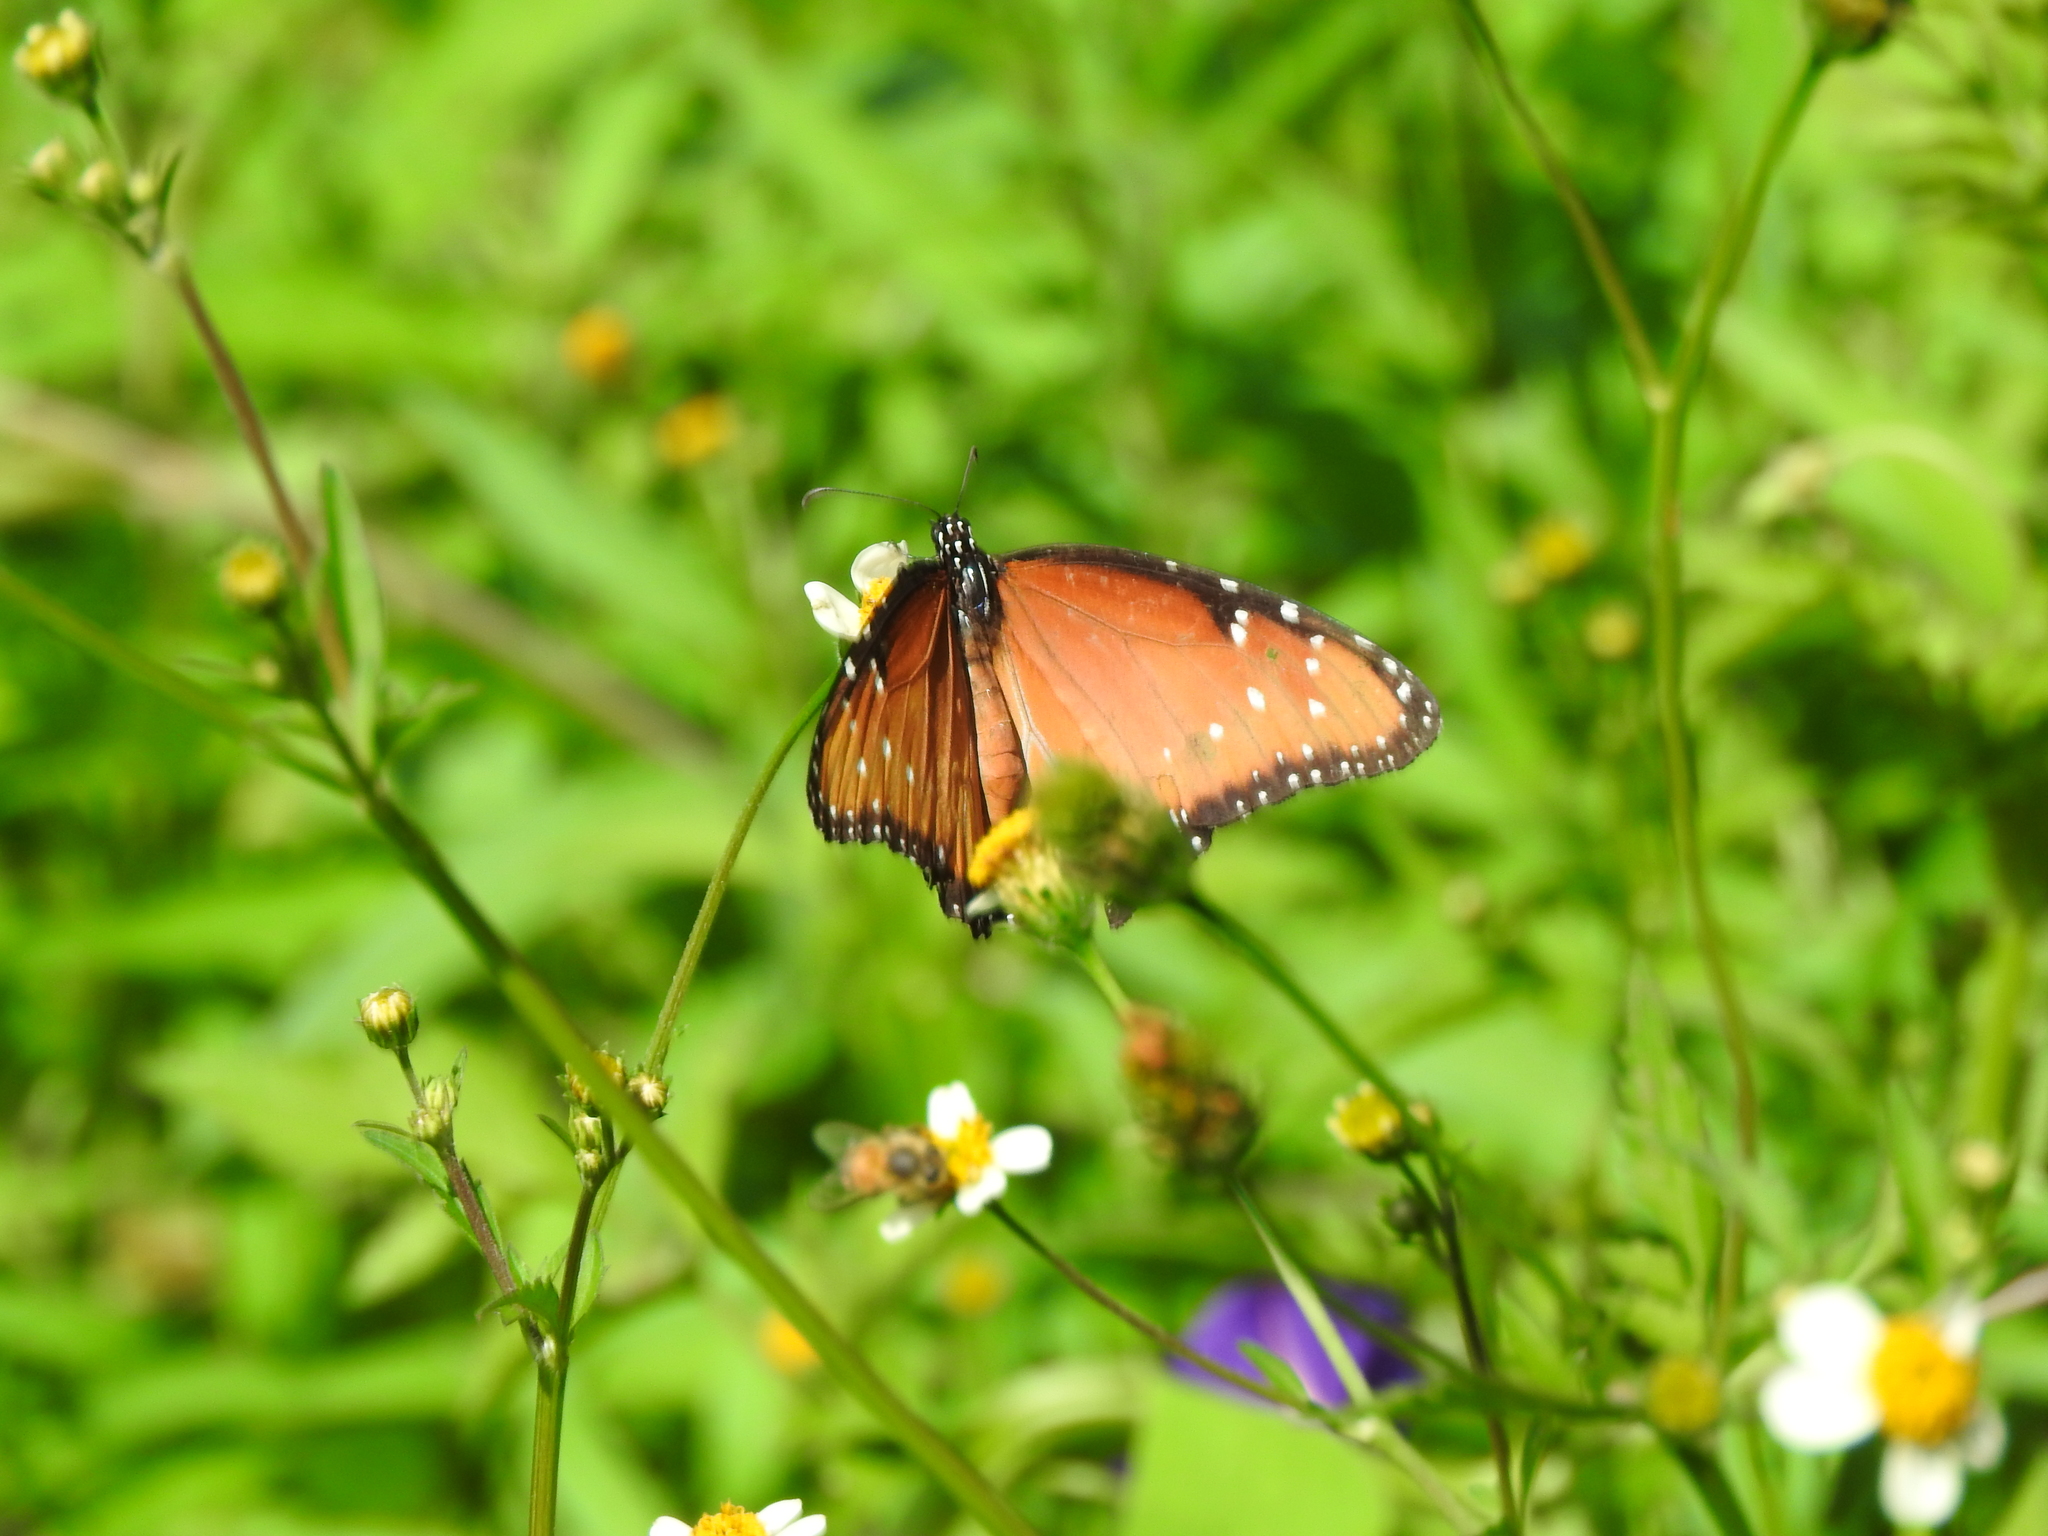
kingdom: Animalia
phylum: Arthropoda
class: Insecta
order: Lepidoptera
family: Nymphalidae
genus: Danaus
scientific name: Danaus gilippus
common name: Queen
